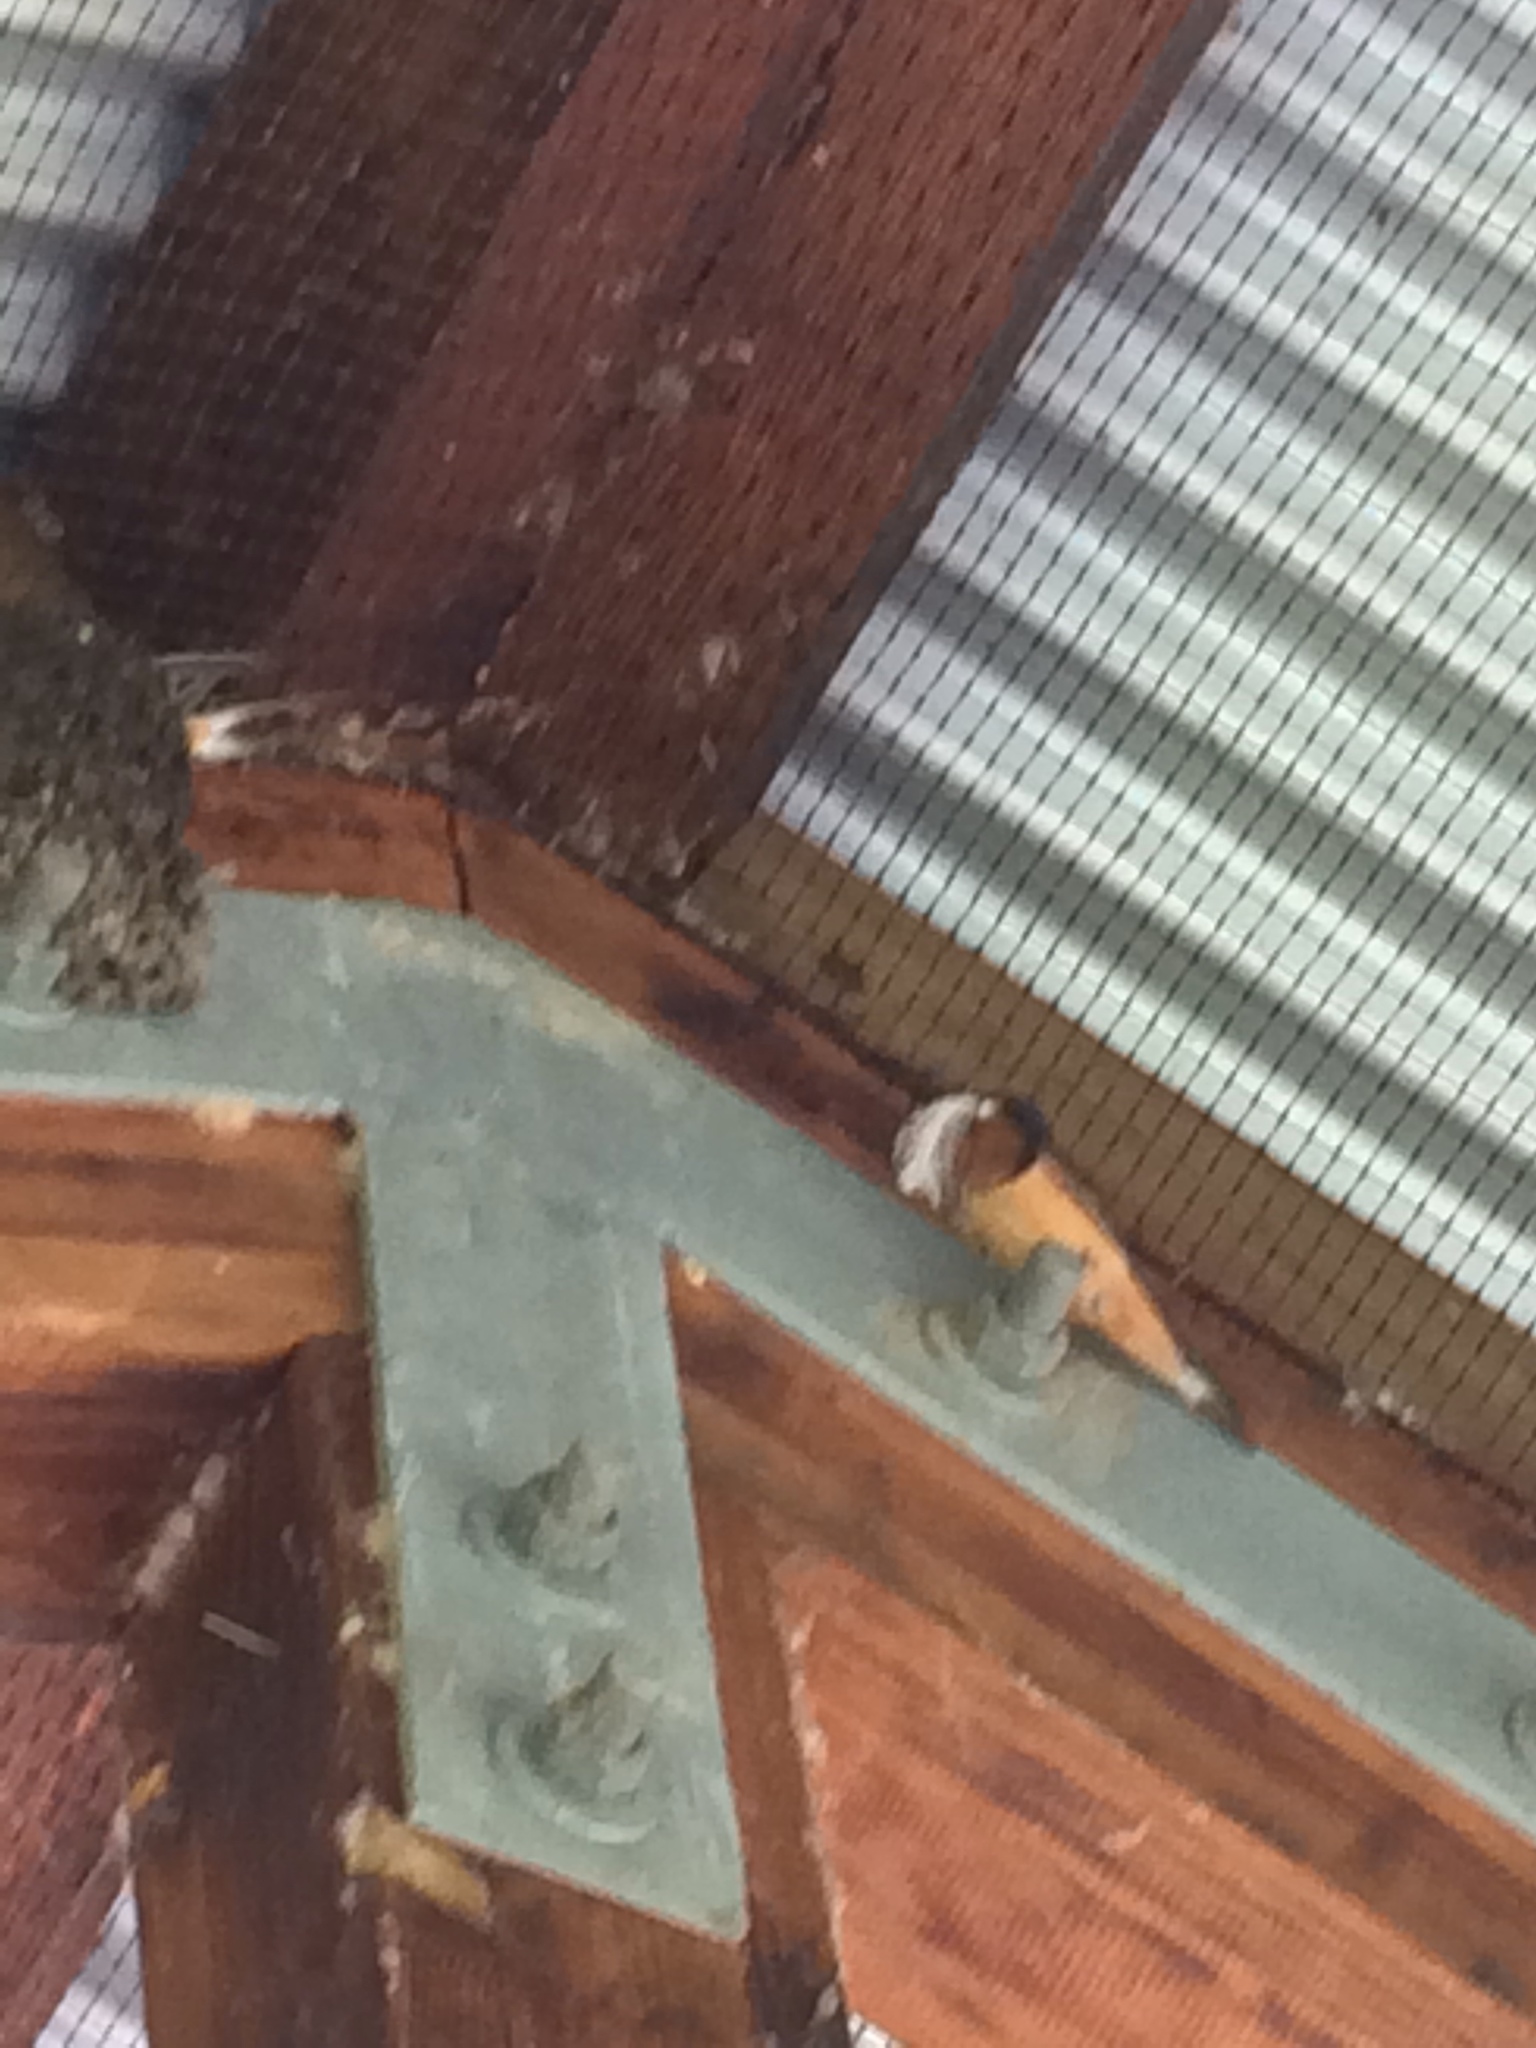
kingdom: Animalia
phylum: Chordata
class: Aves
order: Passeriformes
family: Hirundinidae
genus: Hirundo
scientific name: Hirundo rustica
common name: Barn swallow
